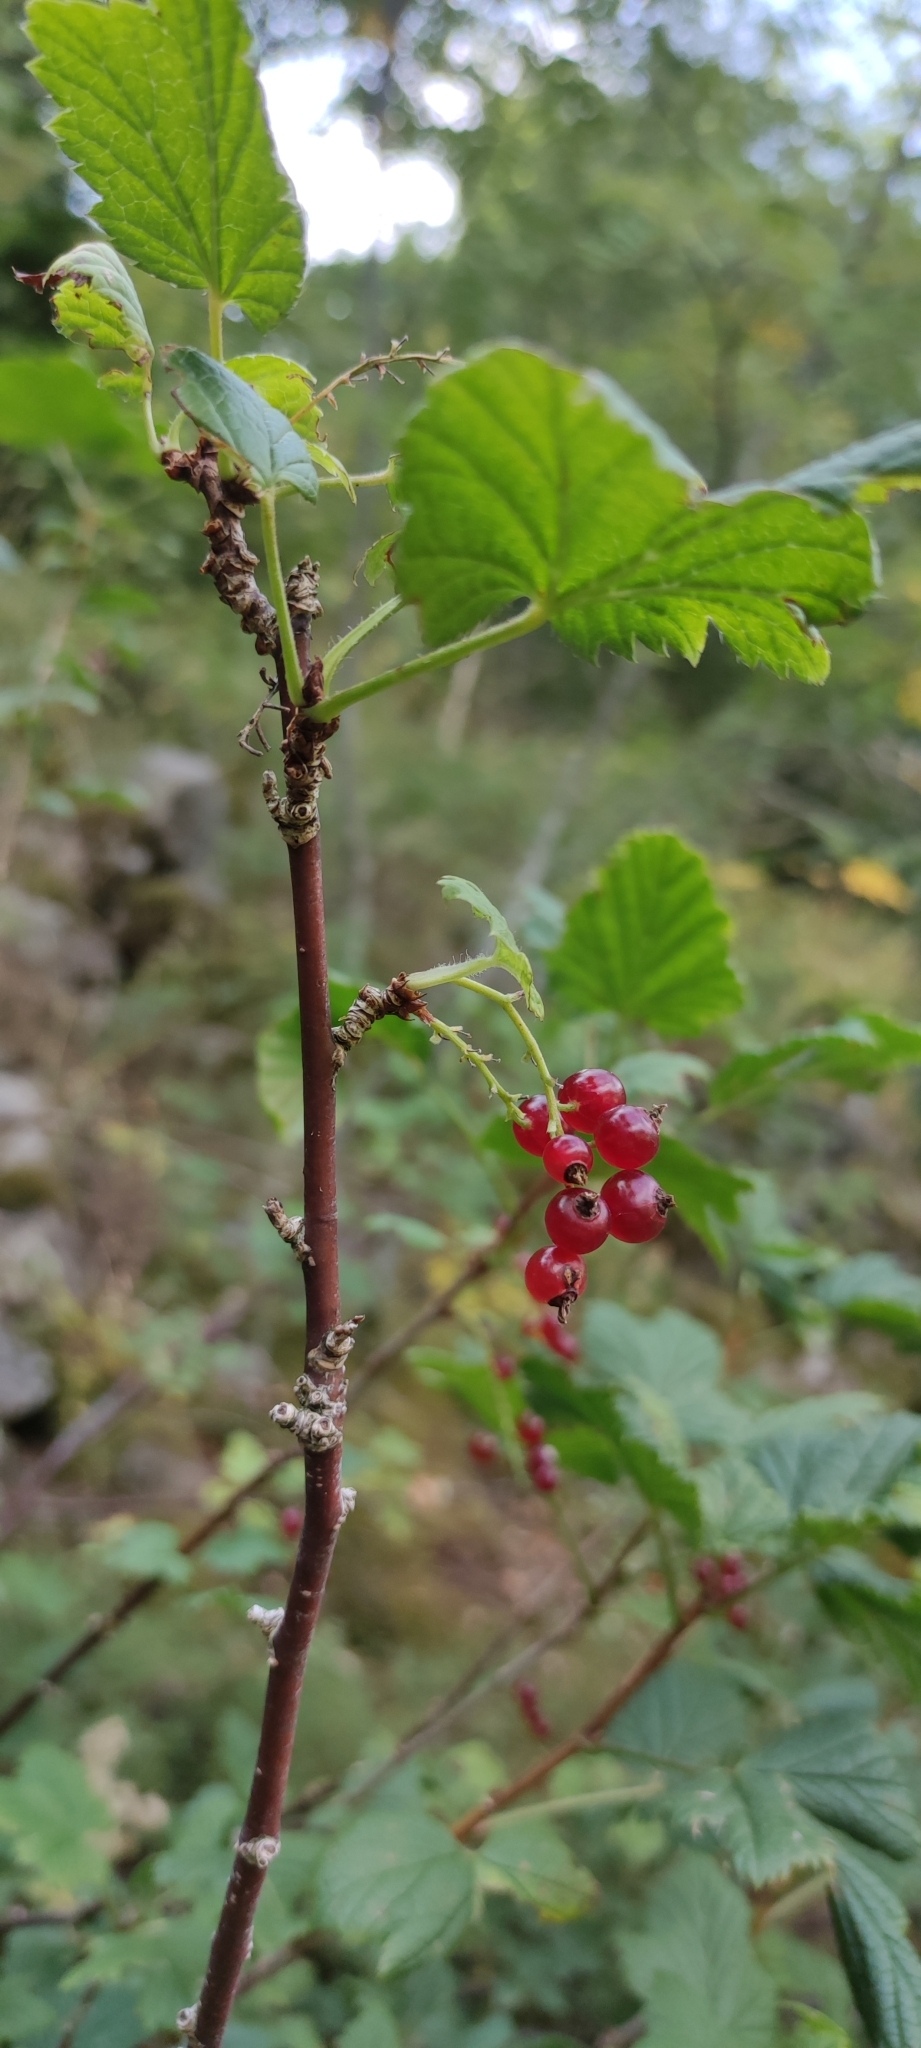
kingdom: Plantae
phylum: Tracheophyta
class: Magnoliopsida
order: Saxifragales
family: Grossulariaceae
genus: Ribes
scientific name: Ribes rubrum
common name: Red currant
